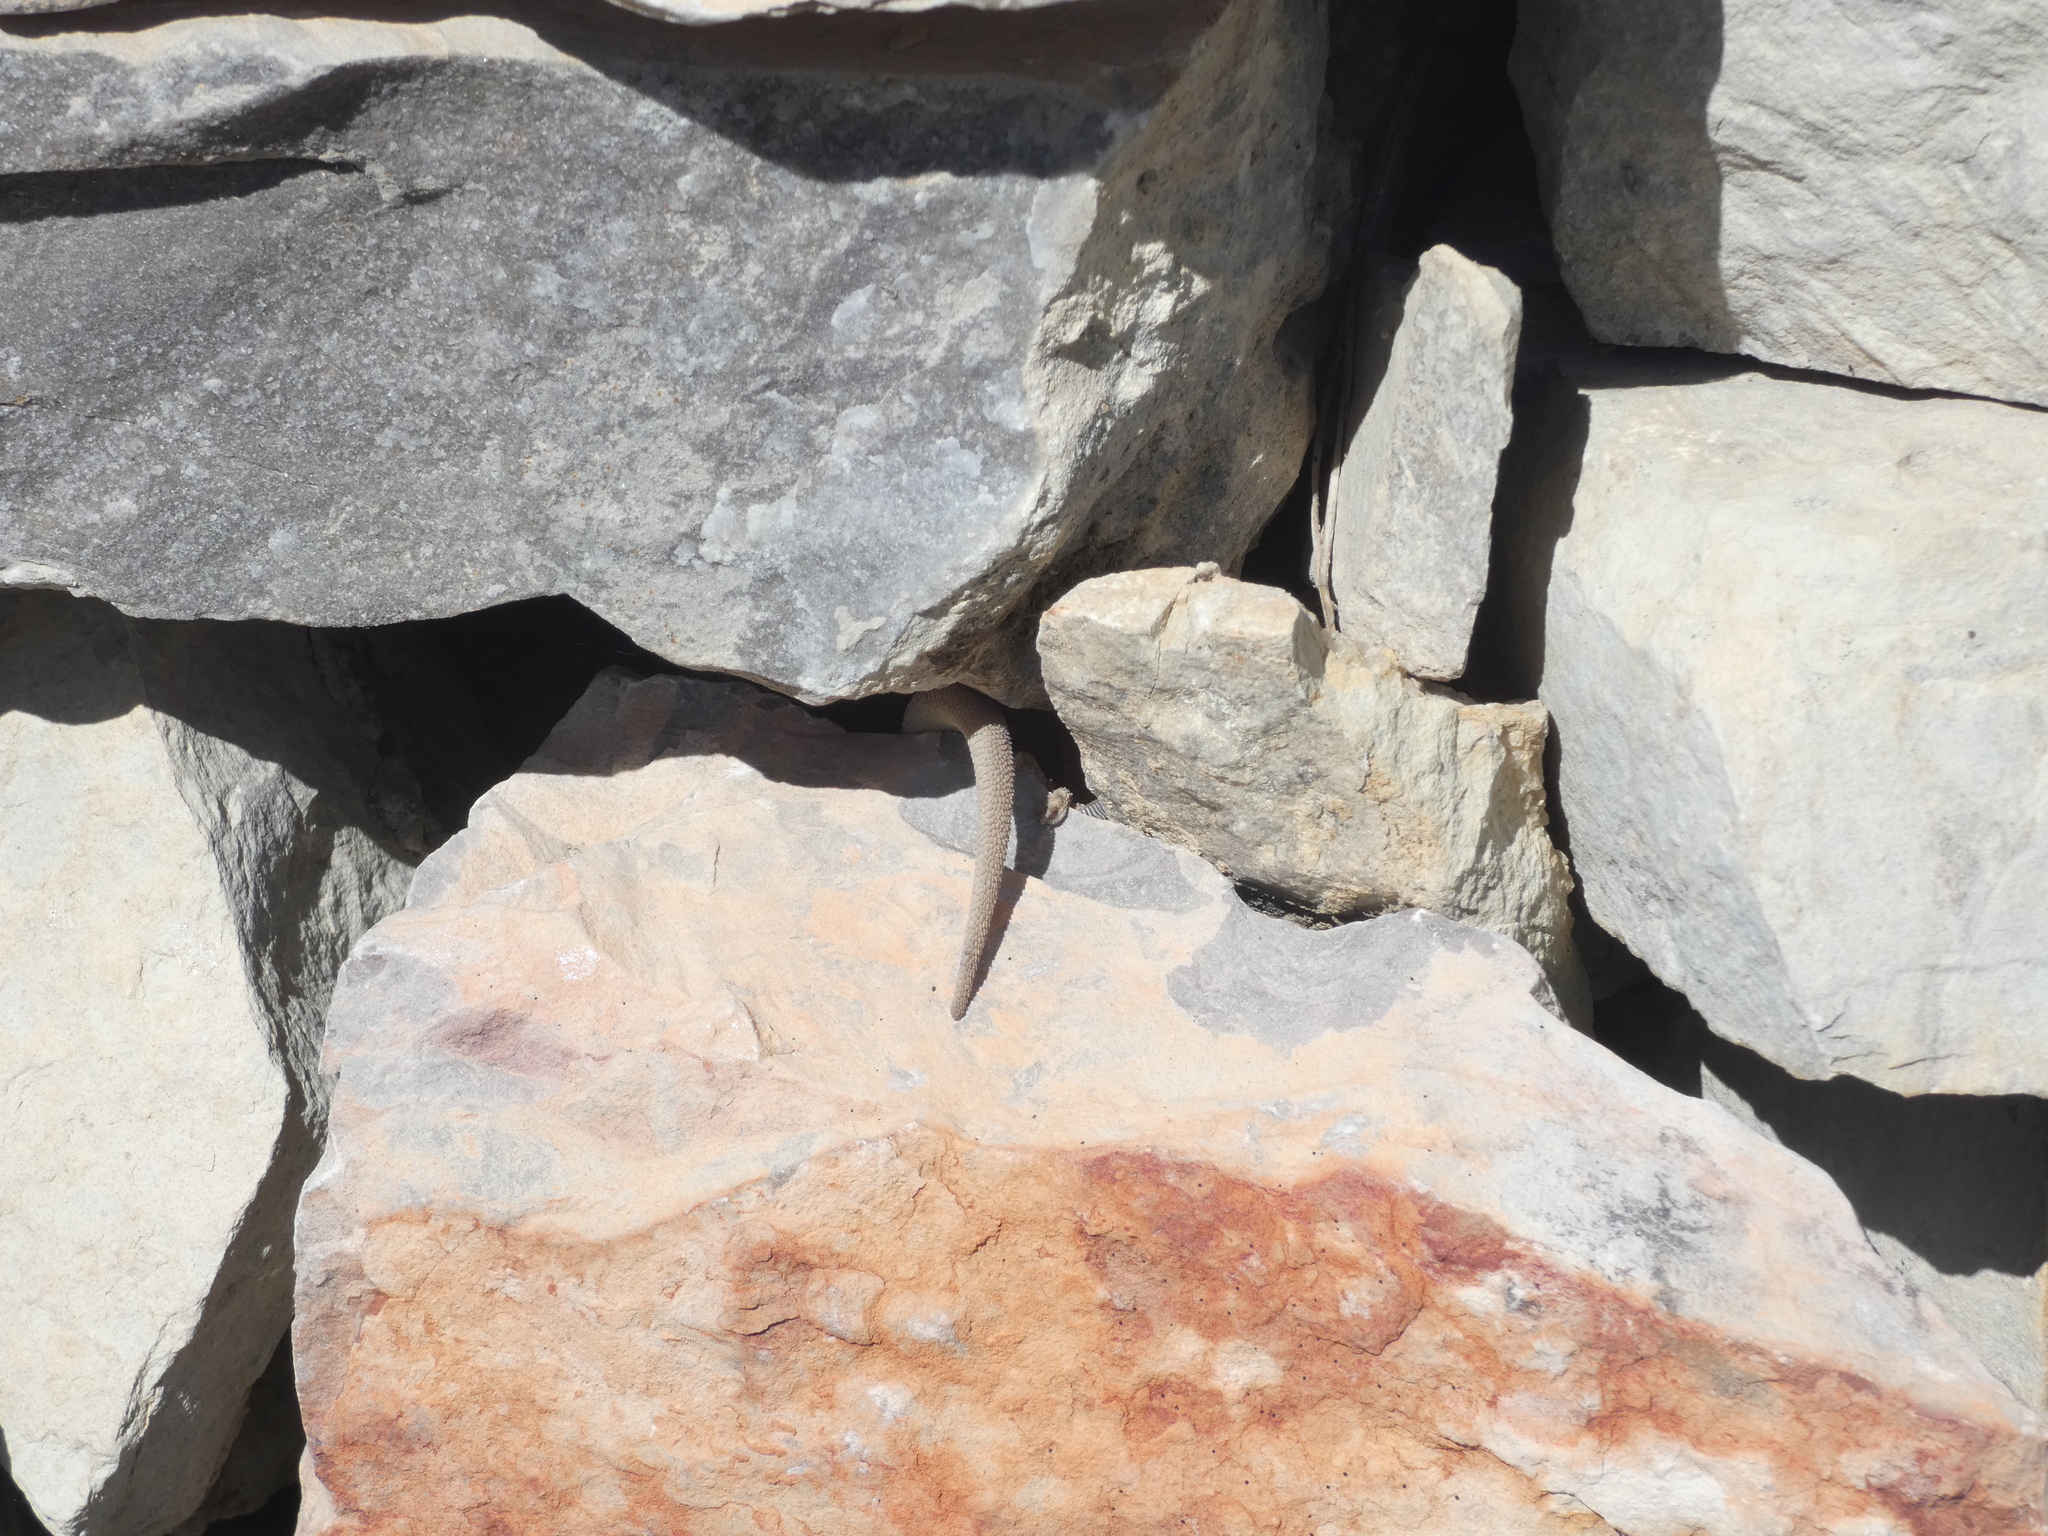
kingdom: Animalia
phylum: Chordata
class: Squamata
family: Phyllodactylidae
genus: Tarentola
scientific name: Tarentola mauritanica
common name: Moorish gecko
